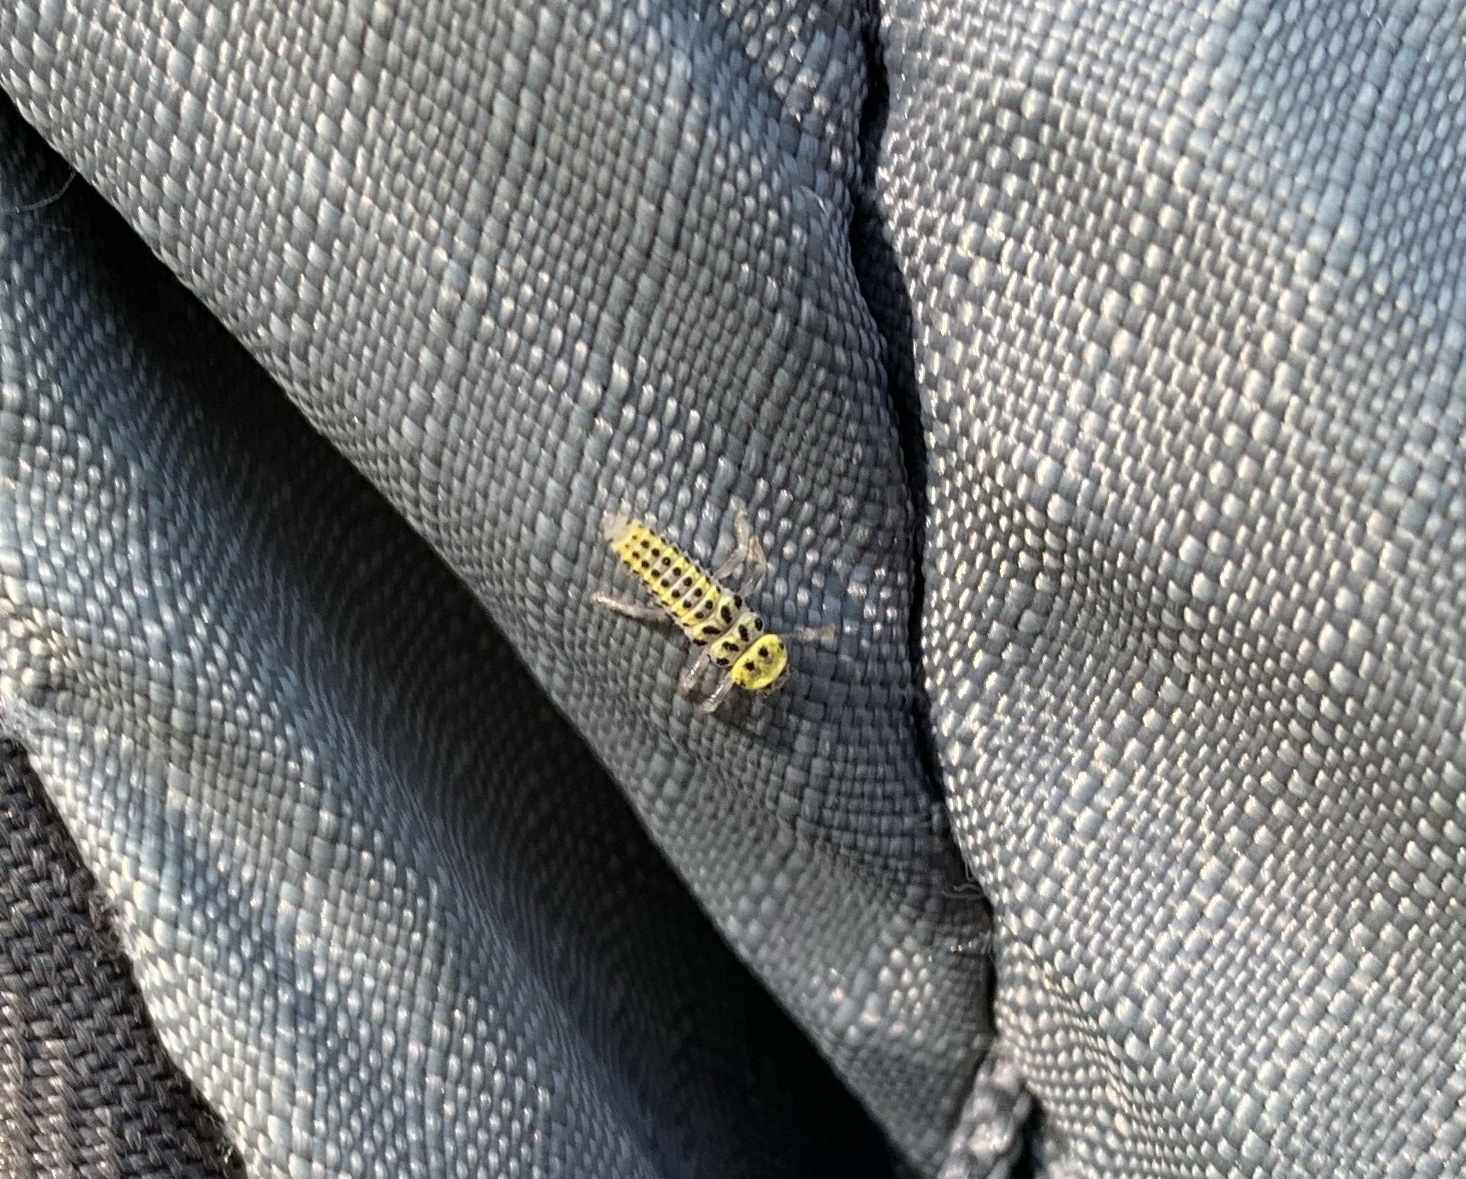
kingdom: Animalia
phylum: Arthropoda
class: Insecta
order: Coleoptera
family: Coccinellidae
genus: Halyzia
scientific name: Halyzia sedecimguttata
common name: Orange ladybird
